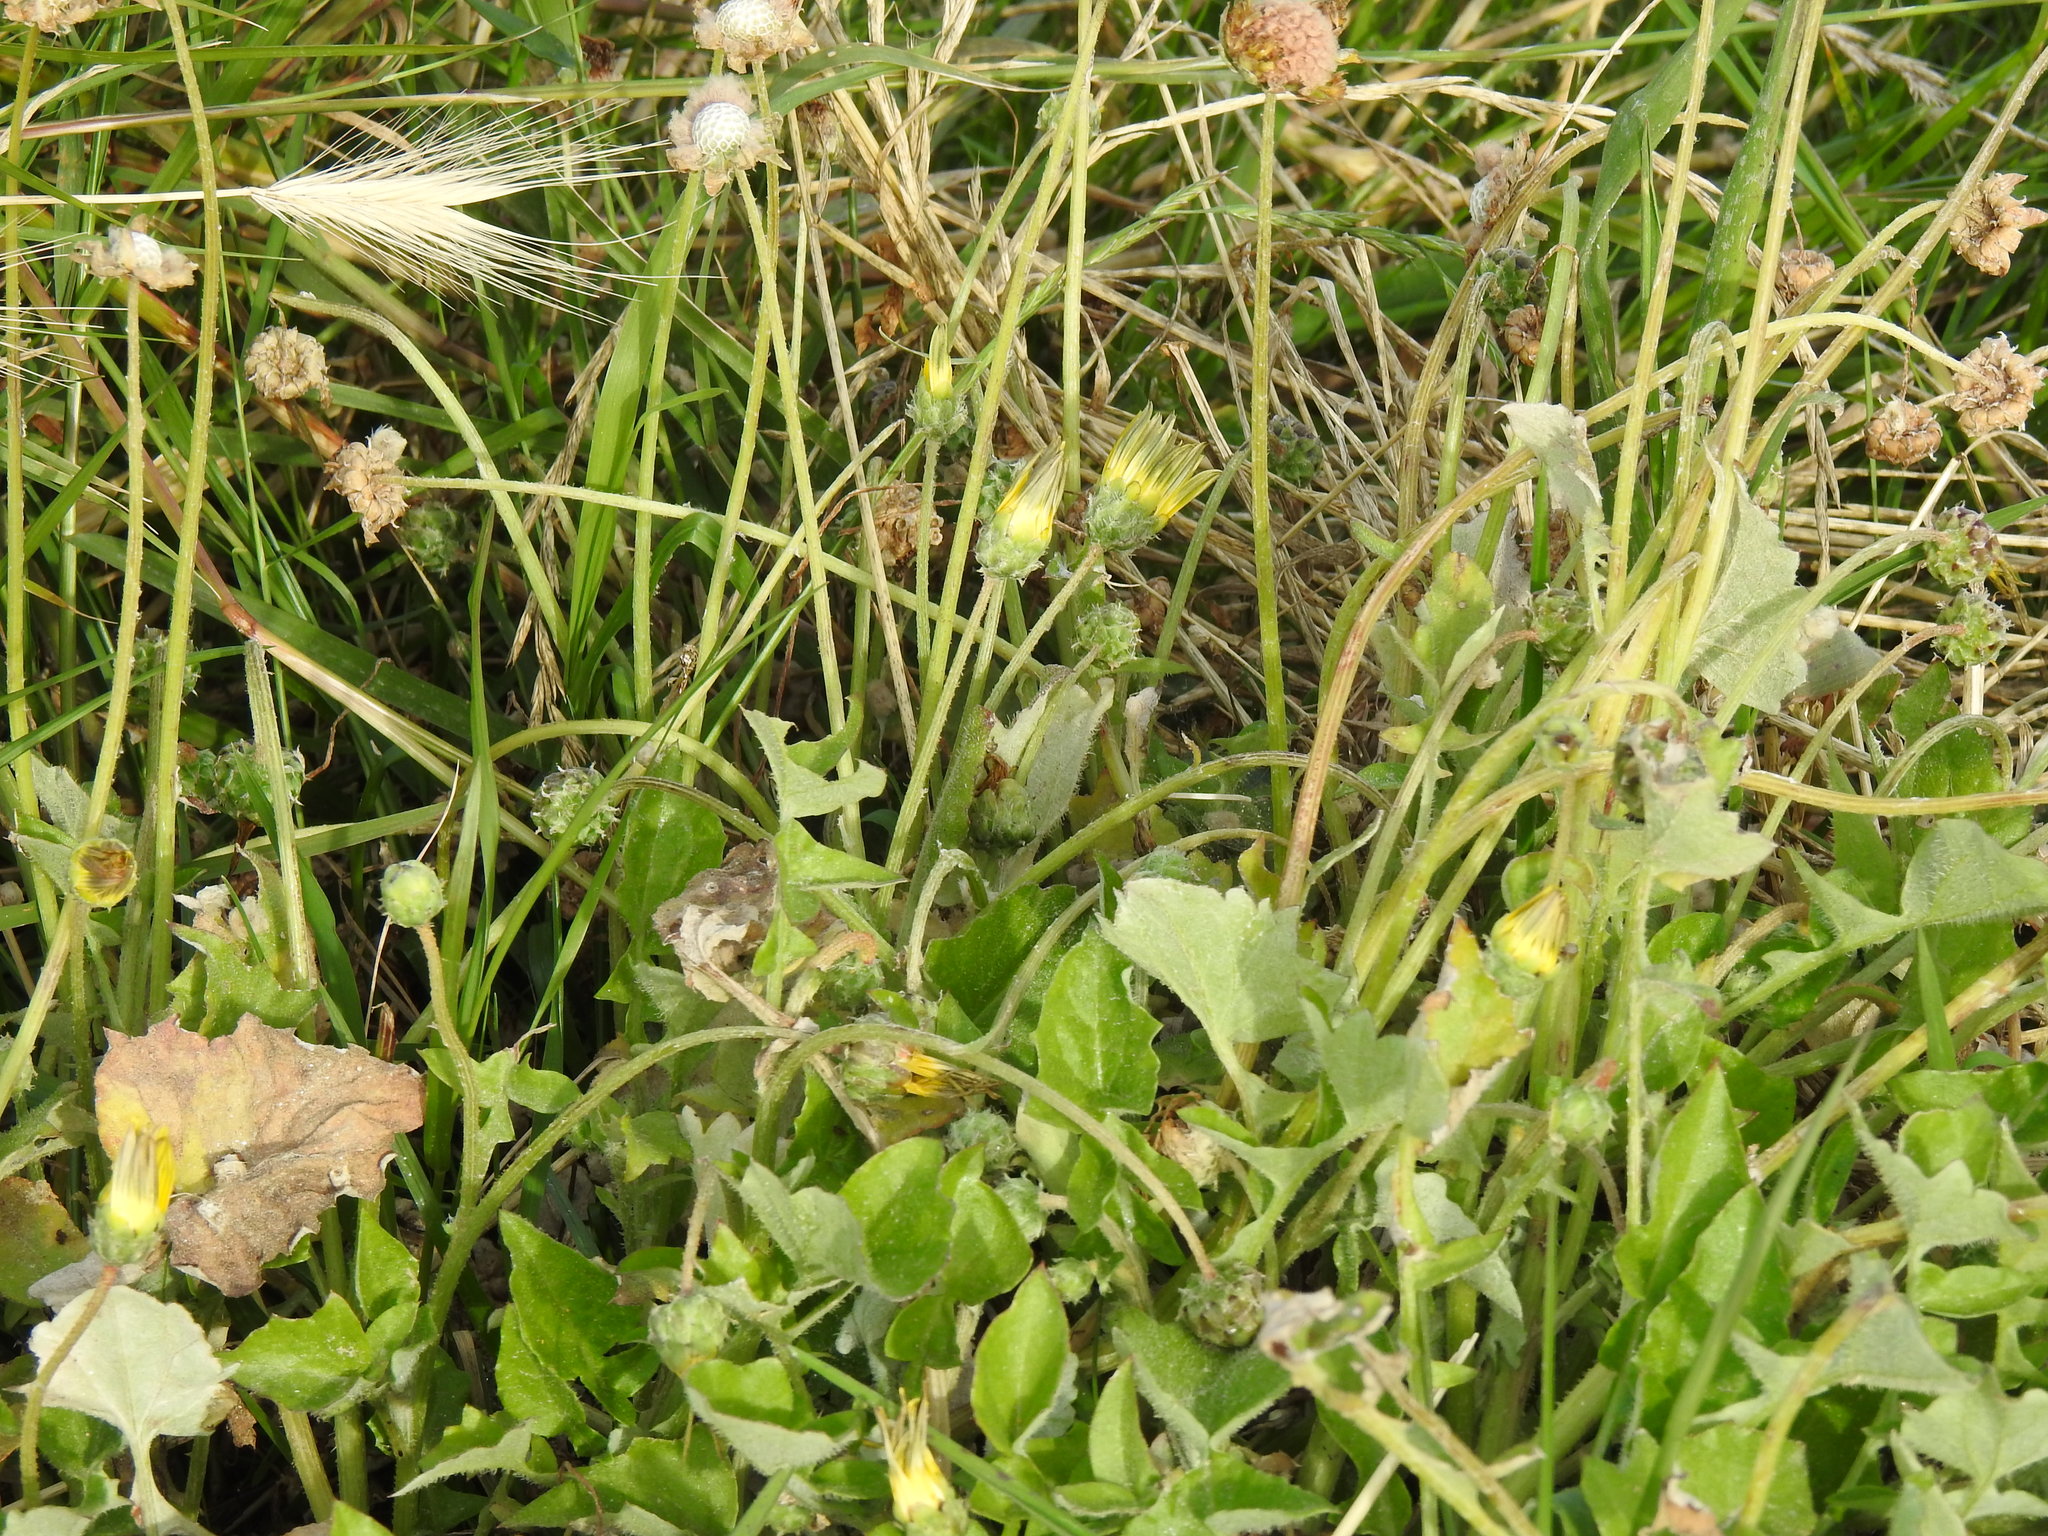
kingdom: Plantae
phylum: Tracheophyta
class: Magnoliopsida
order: Asterales
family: Asteraceae
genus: Arctotheca
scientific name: Arctotheca calendula
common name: Capeweed
